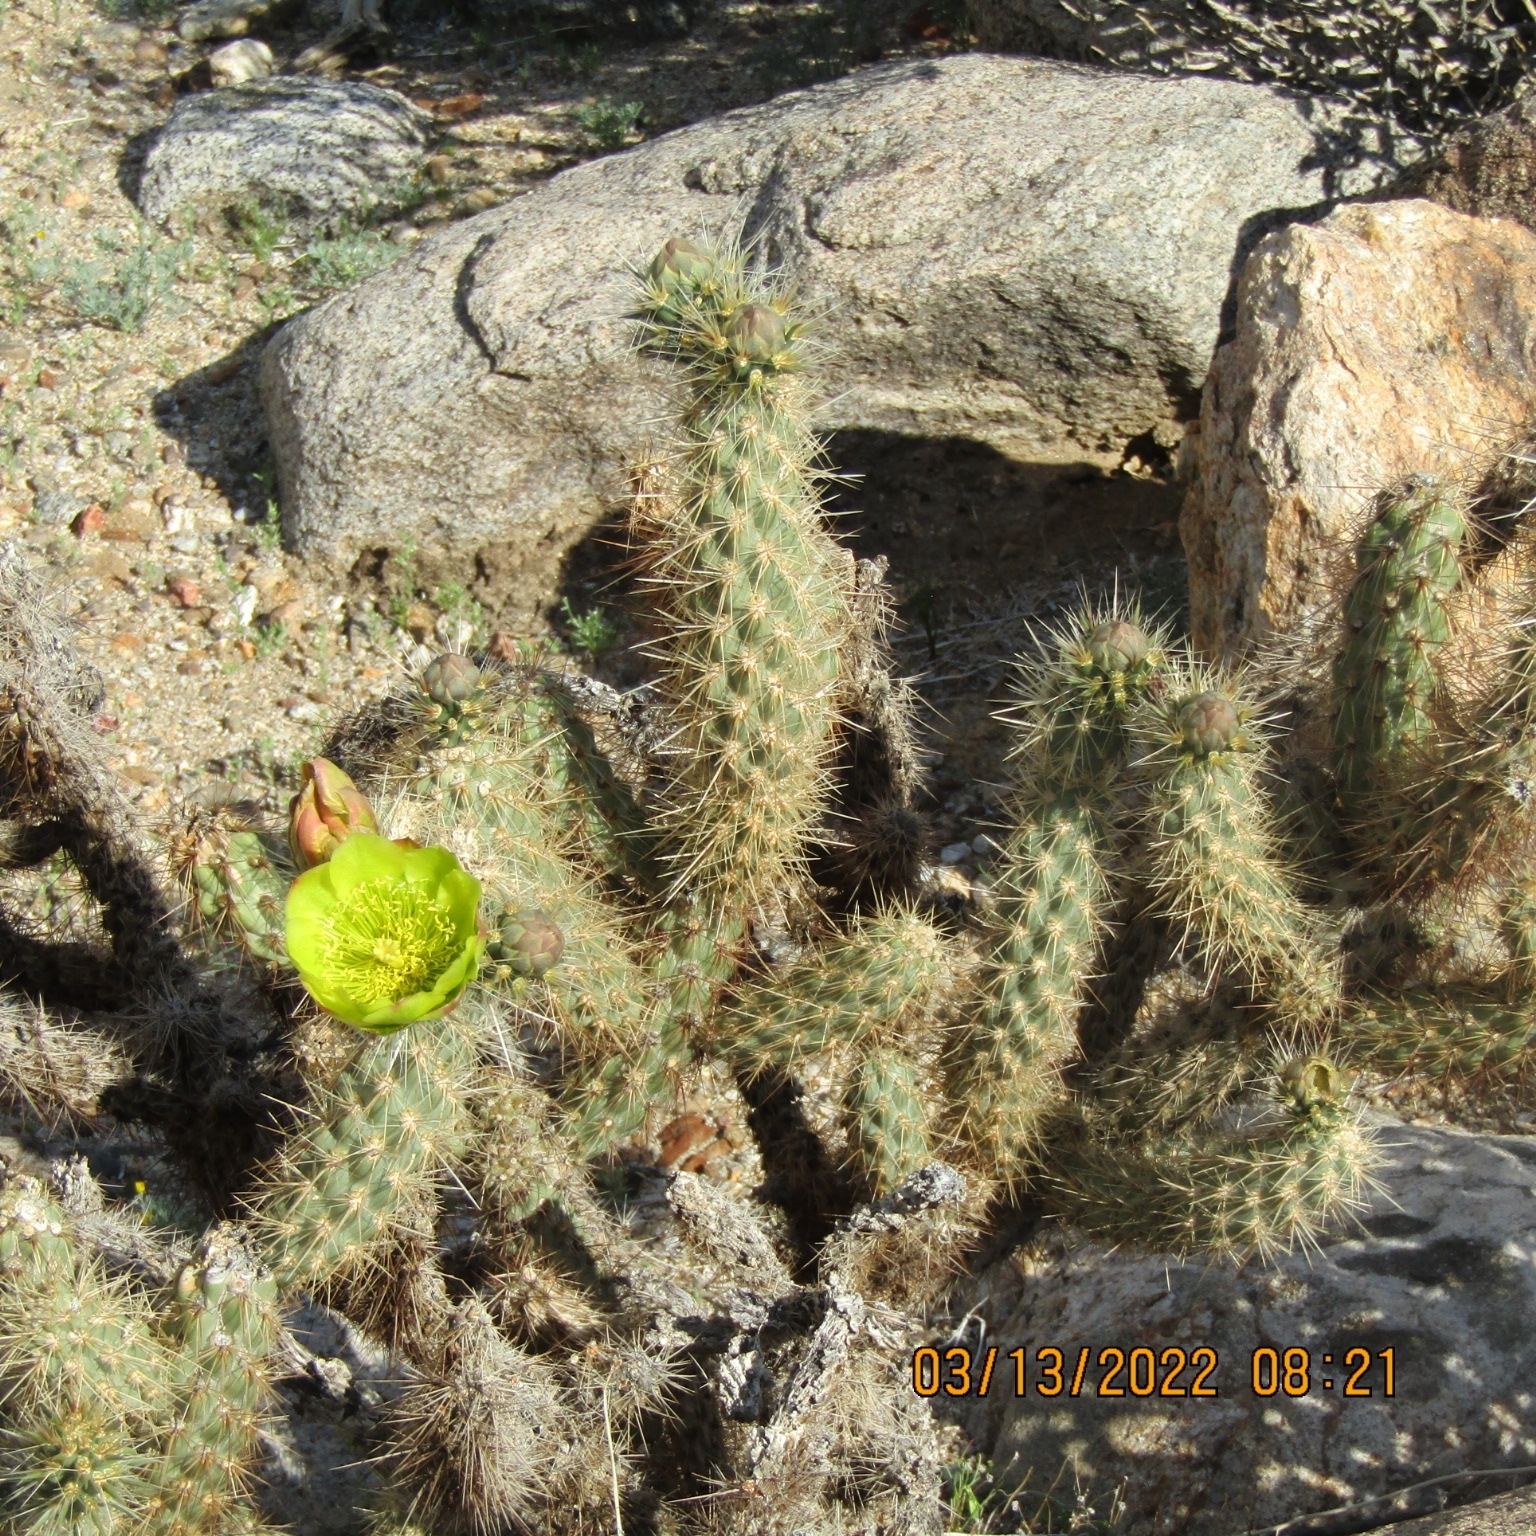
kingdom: Plantae
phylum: Tracheophyta
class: Magnoliopsida
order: Caryophyllales
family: Cactaceae
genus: Cylindropuntia
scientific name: Cylindropuntia ganderi
